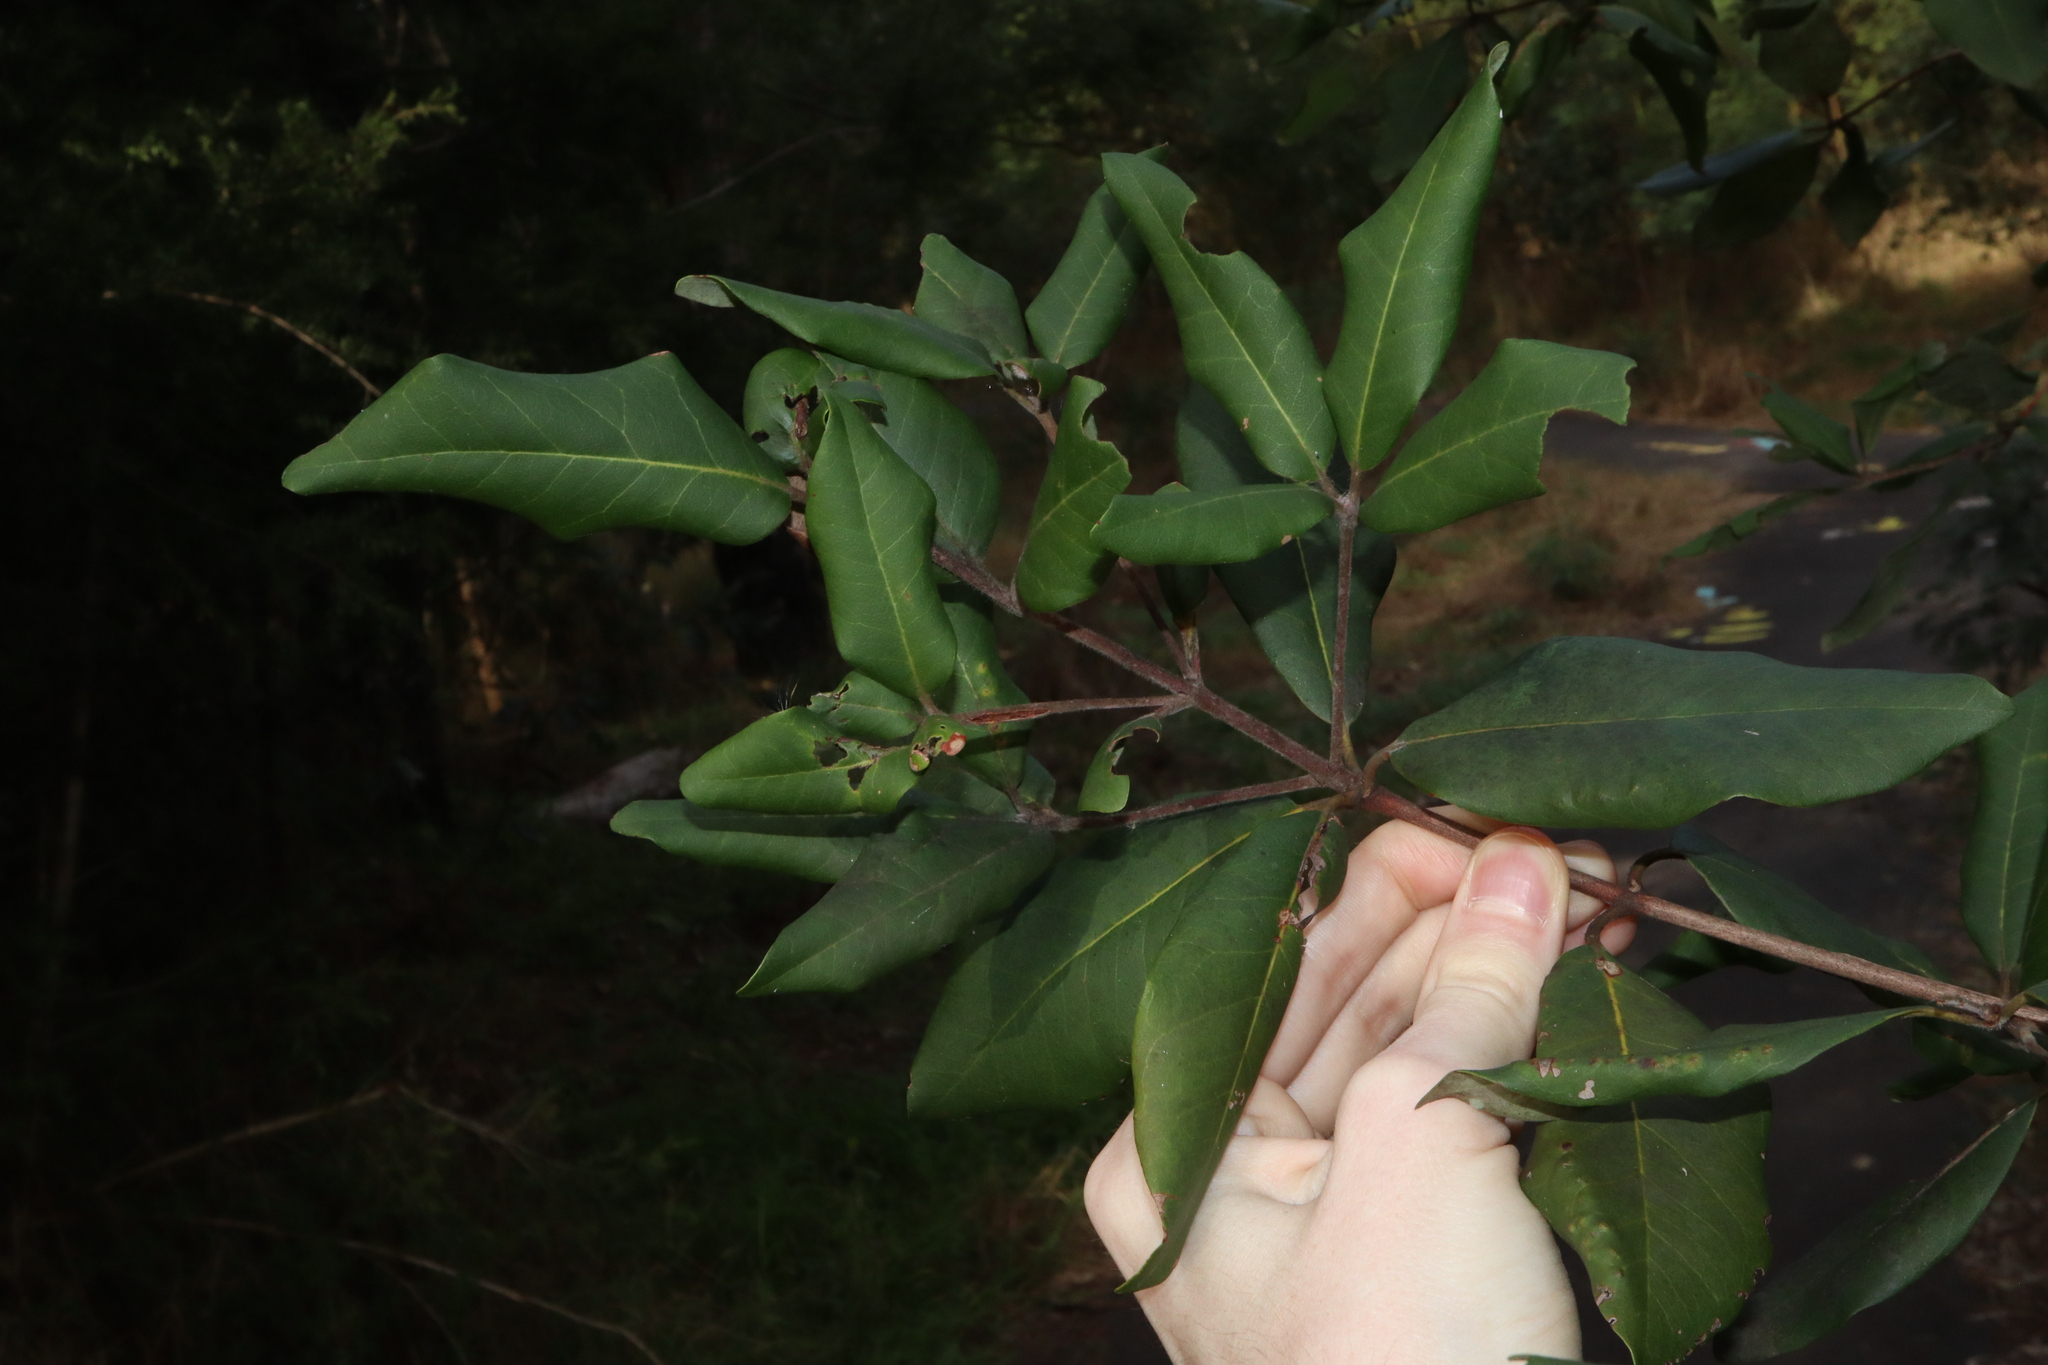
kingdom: Plantae
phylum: Tracheophyta
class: Magnoliopsida
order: Myrtales
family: Myrtaceae
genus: Syncarpia
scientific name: Syncarpia glomulifera
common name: Turpentine tree
